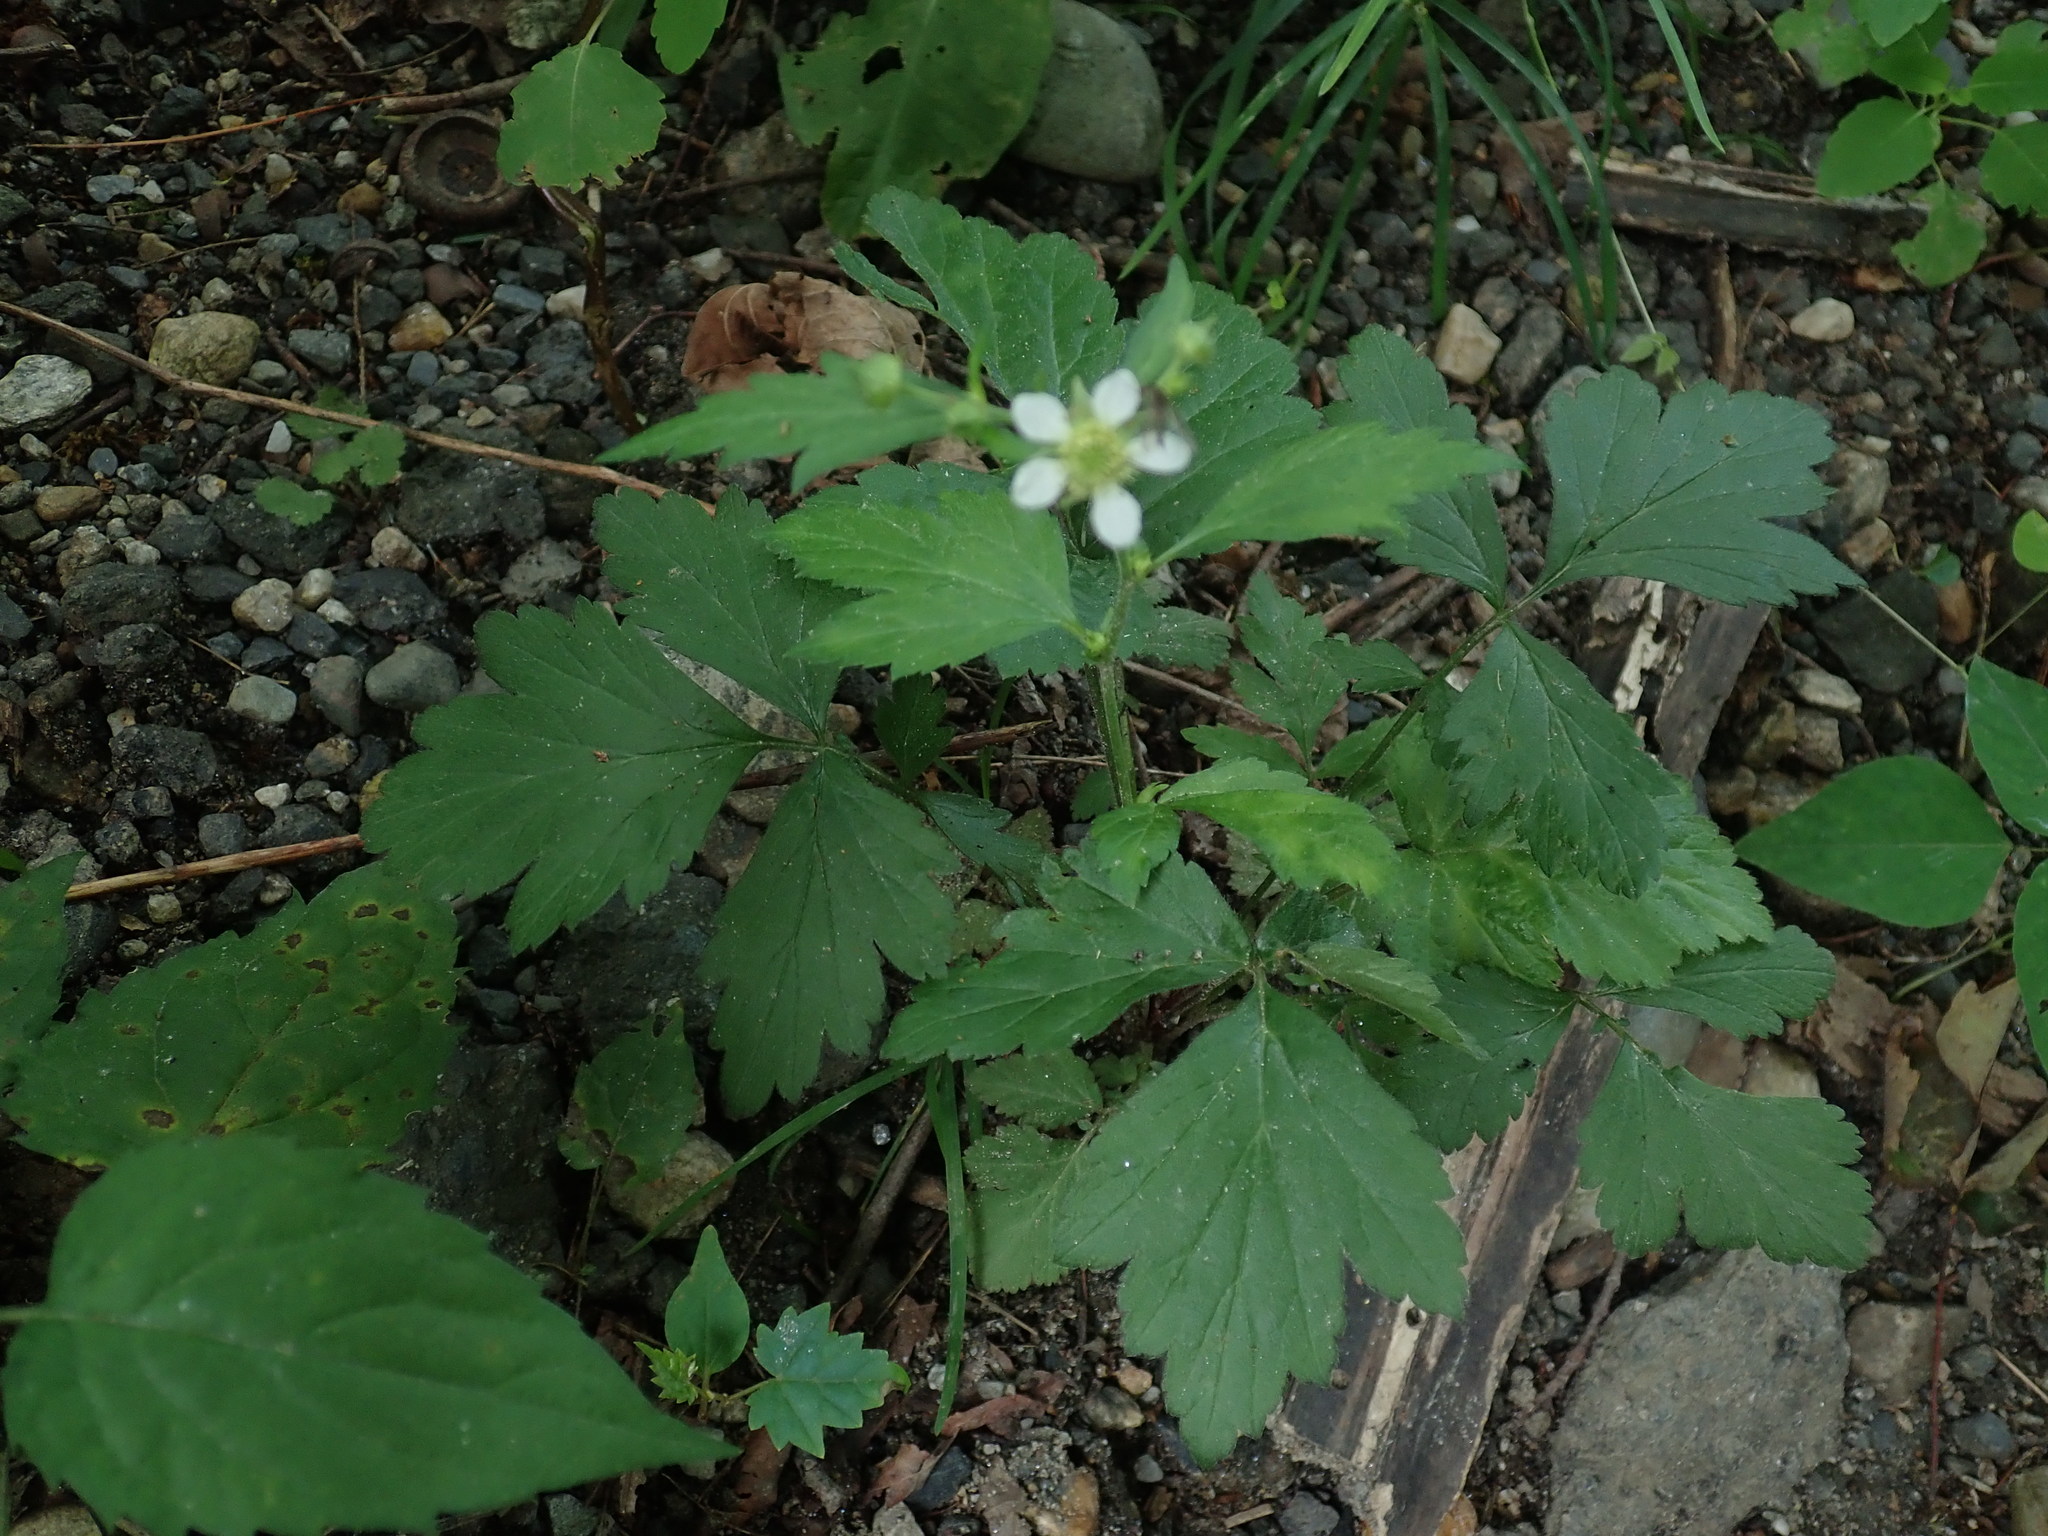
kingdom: Plantae
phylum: Tracheophyta
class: Magnoliopsida
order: Rosales
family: Rosaceae
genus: Geum
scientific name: Geum canadense
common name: White avens
